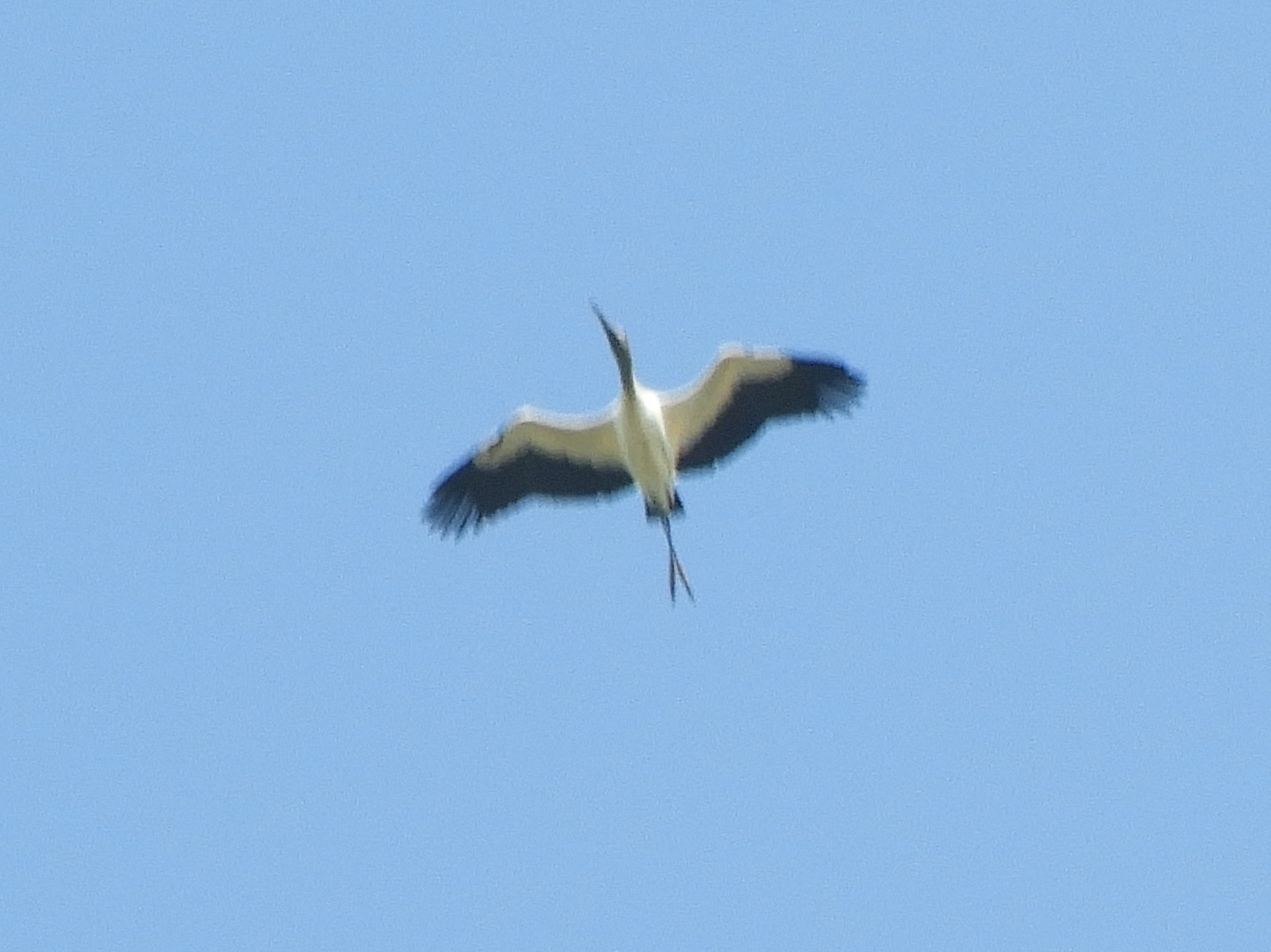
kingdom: Animalia
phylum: Chordata
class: Aves
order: Ciconiiformes
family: Ciconiidae
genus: Mycteria
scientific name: Mycteria americana
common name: Wood stork
